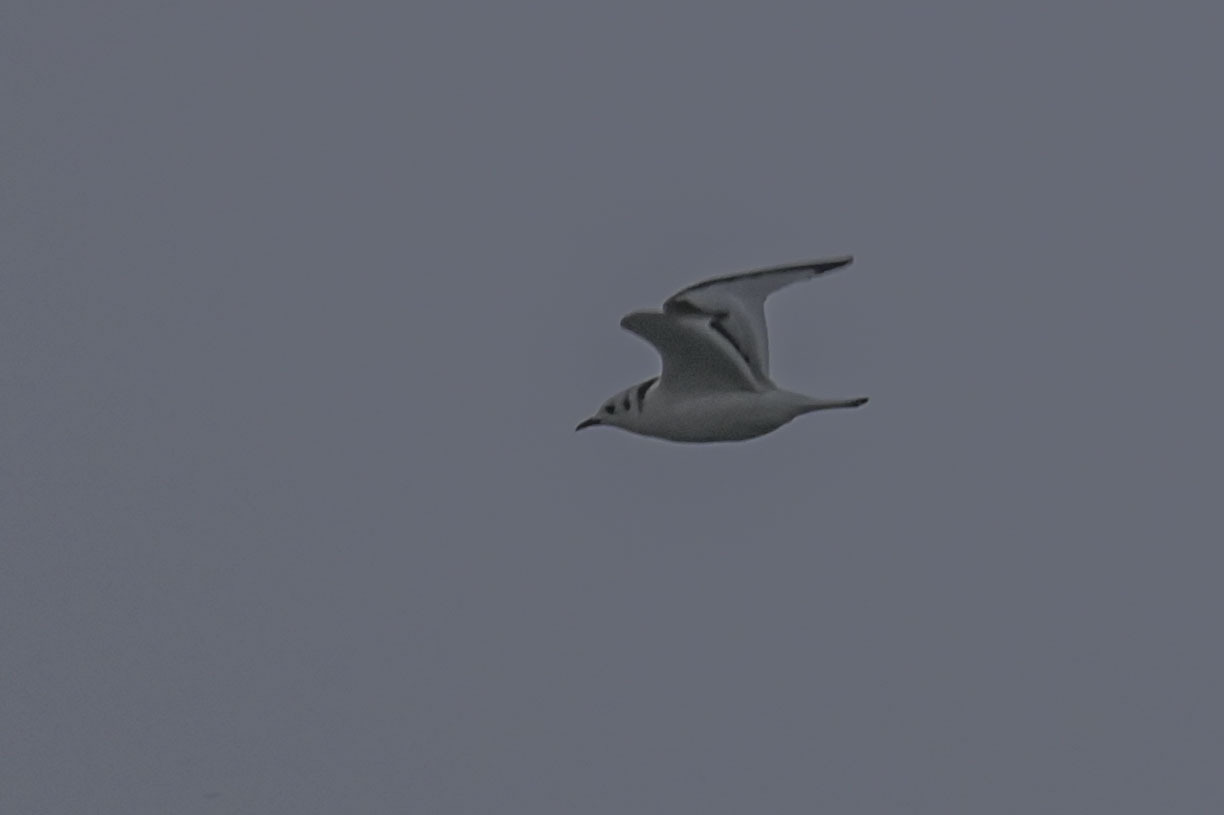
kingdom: Animalia
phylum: Chordata
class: Aves
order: Charadriiformes
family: Laridae
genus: Rissa
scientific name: Rissa tridactyla
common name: Black-legged kittiwake
